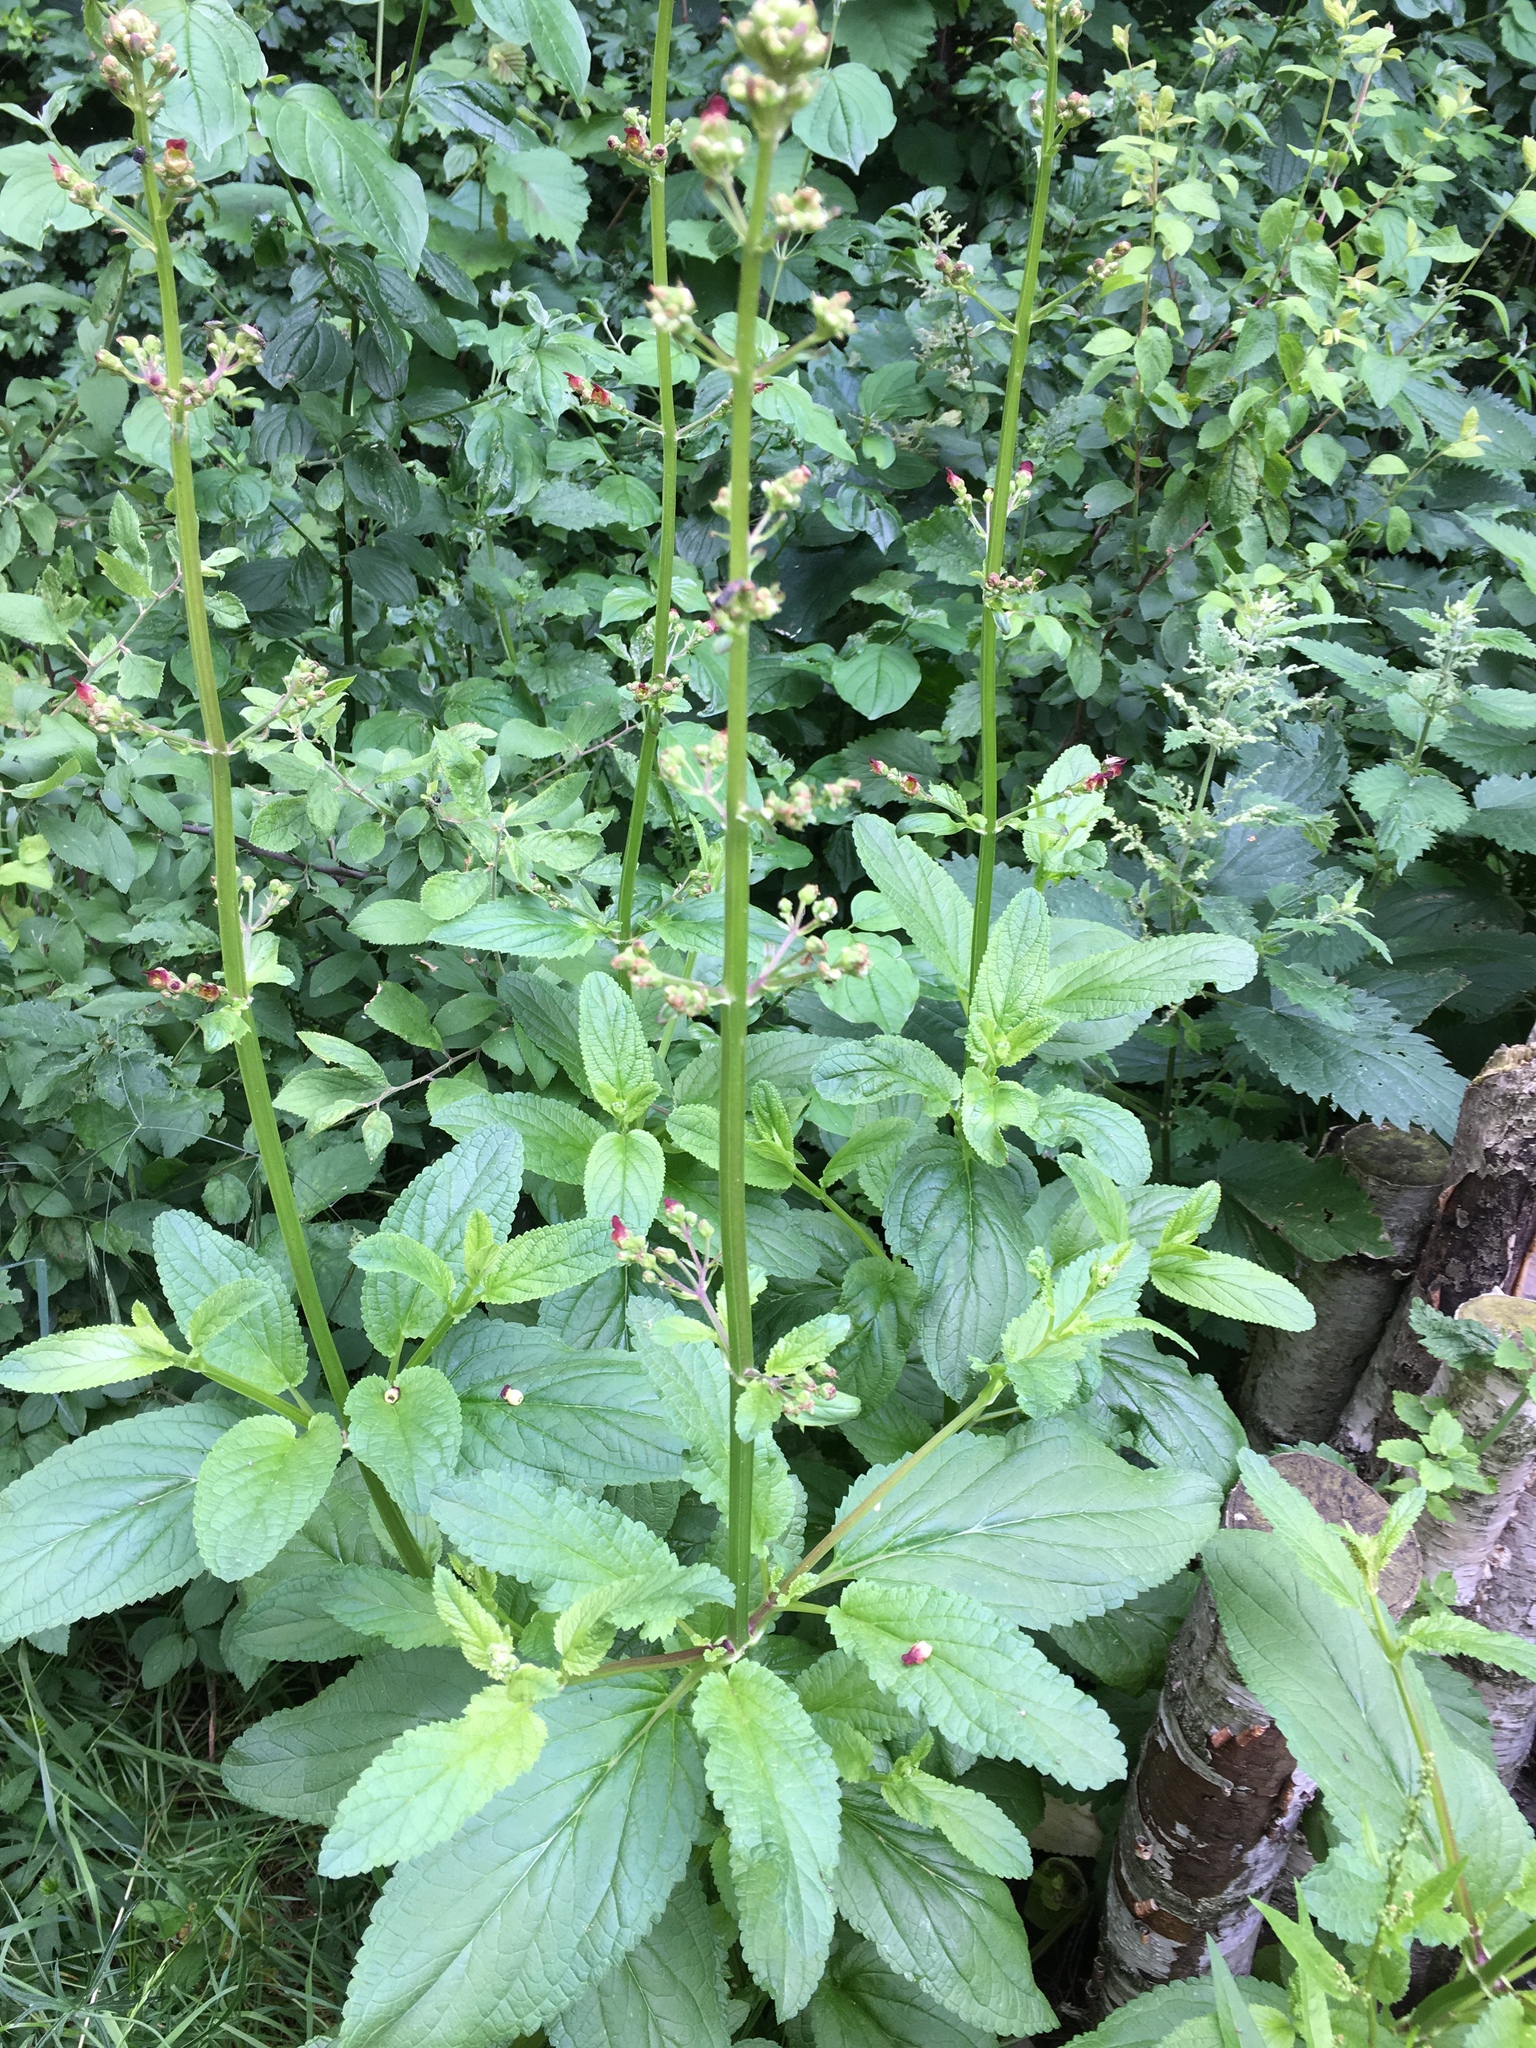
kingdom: Plantae
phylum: Tracheophyta
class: Magnoliopsida
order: Lamiales
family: Scrophulariaceae
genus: Scrophularia
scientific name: Scrophularia nodosa
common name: Common figwort
